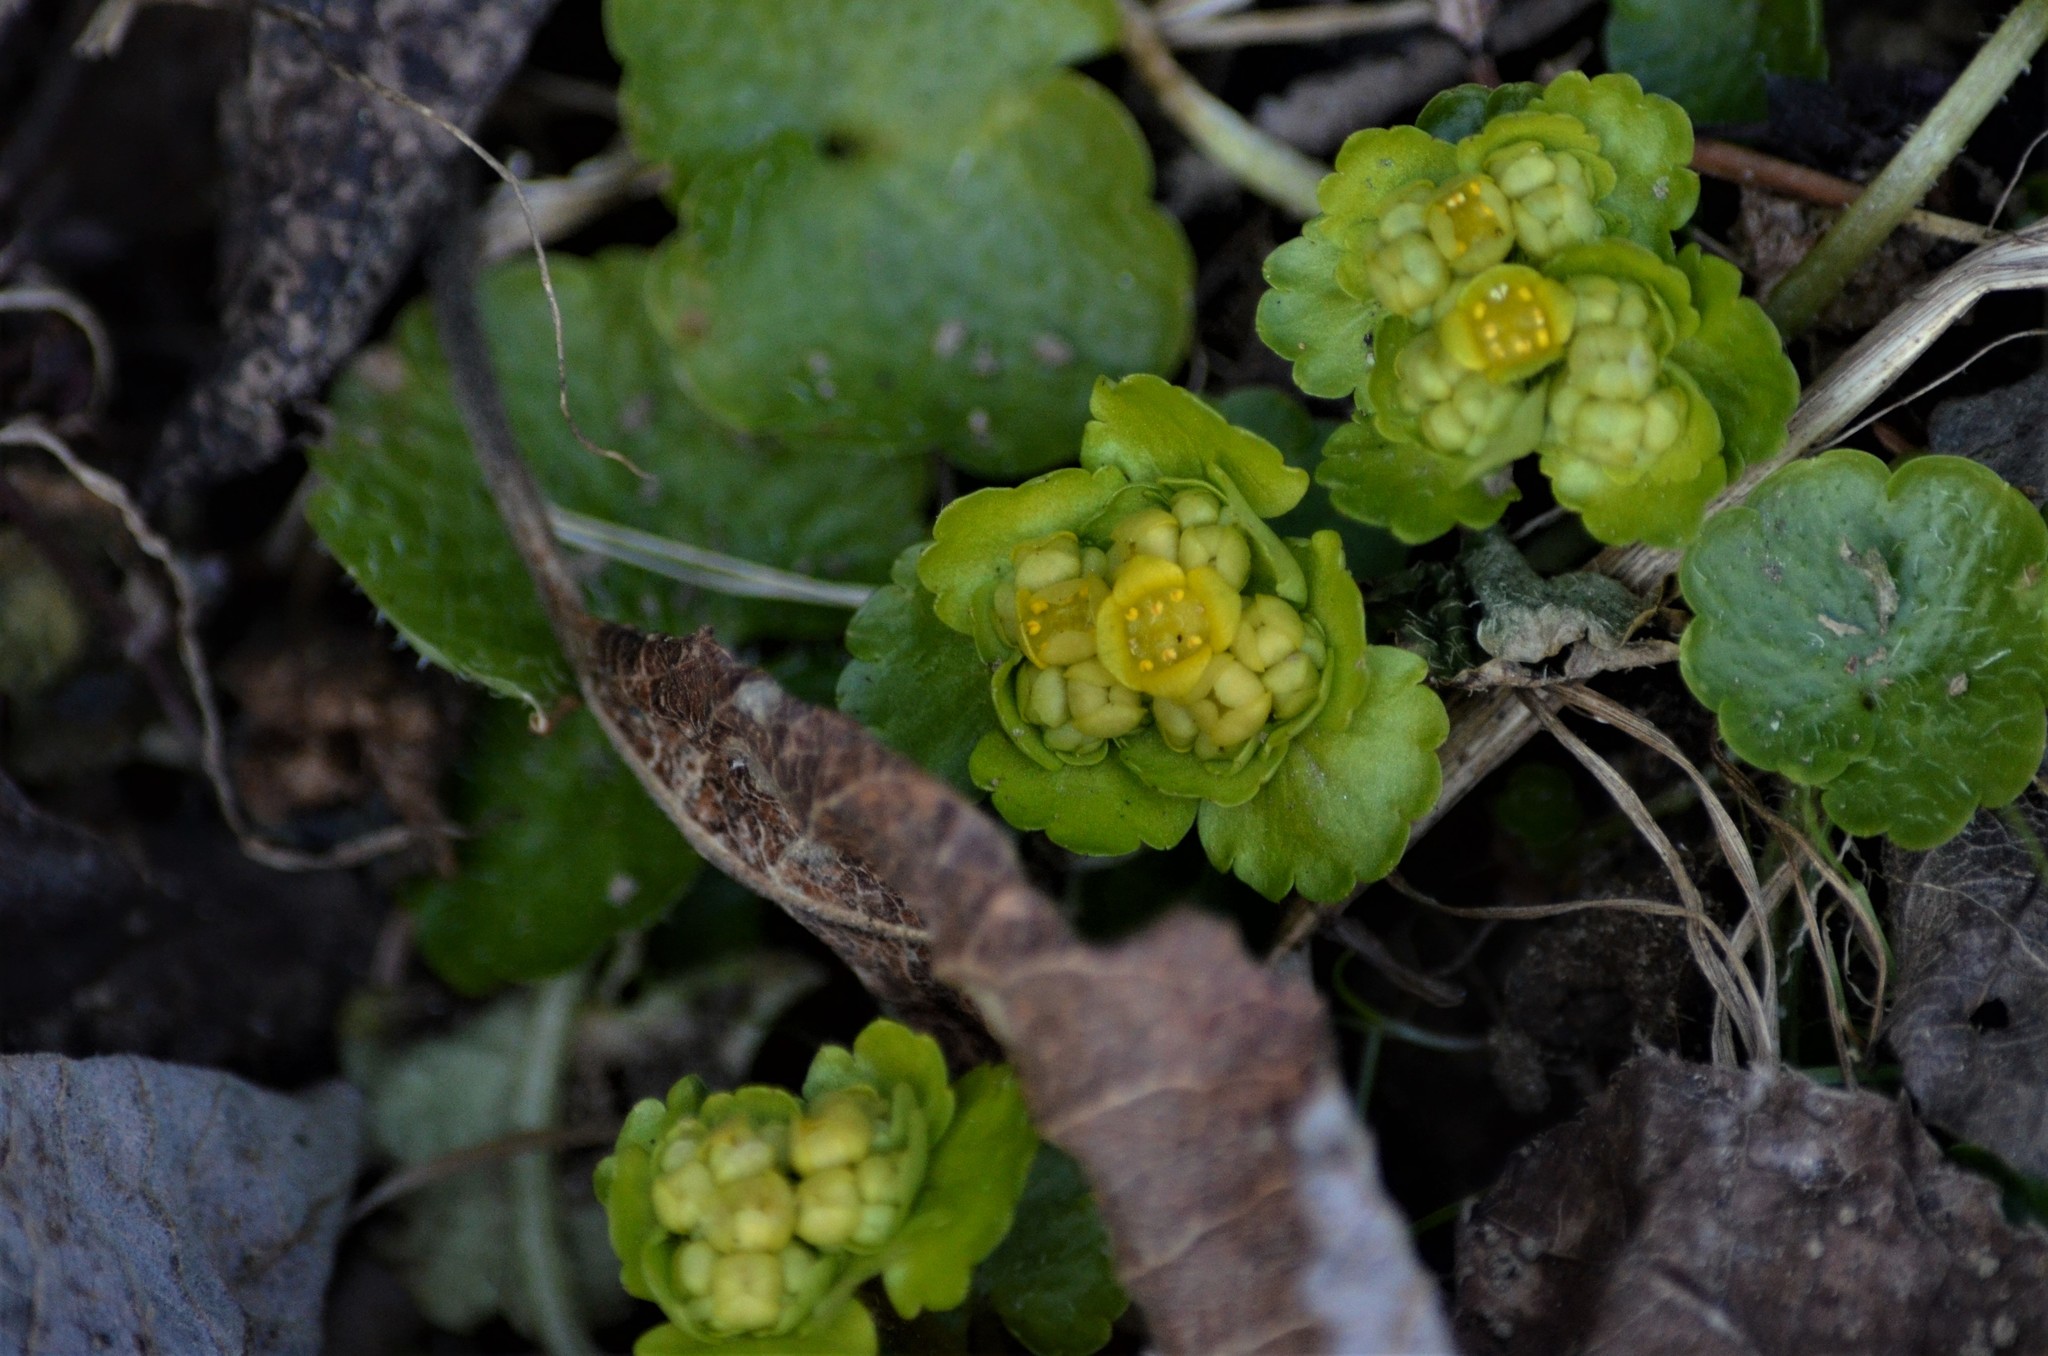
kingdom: Plantae
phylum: Tracheophyta
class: Magnoliopsida
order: Saxifragales
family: Saxifragaceae
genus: Chrysosplenium
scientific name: Chrysosplenium alternifolium
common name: Alternate-leaved golden-saxifrage
